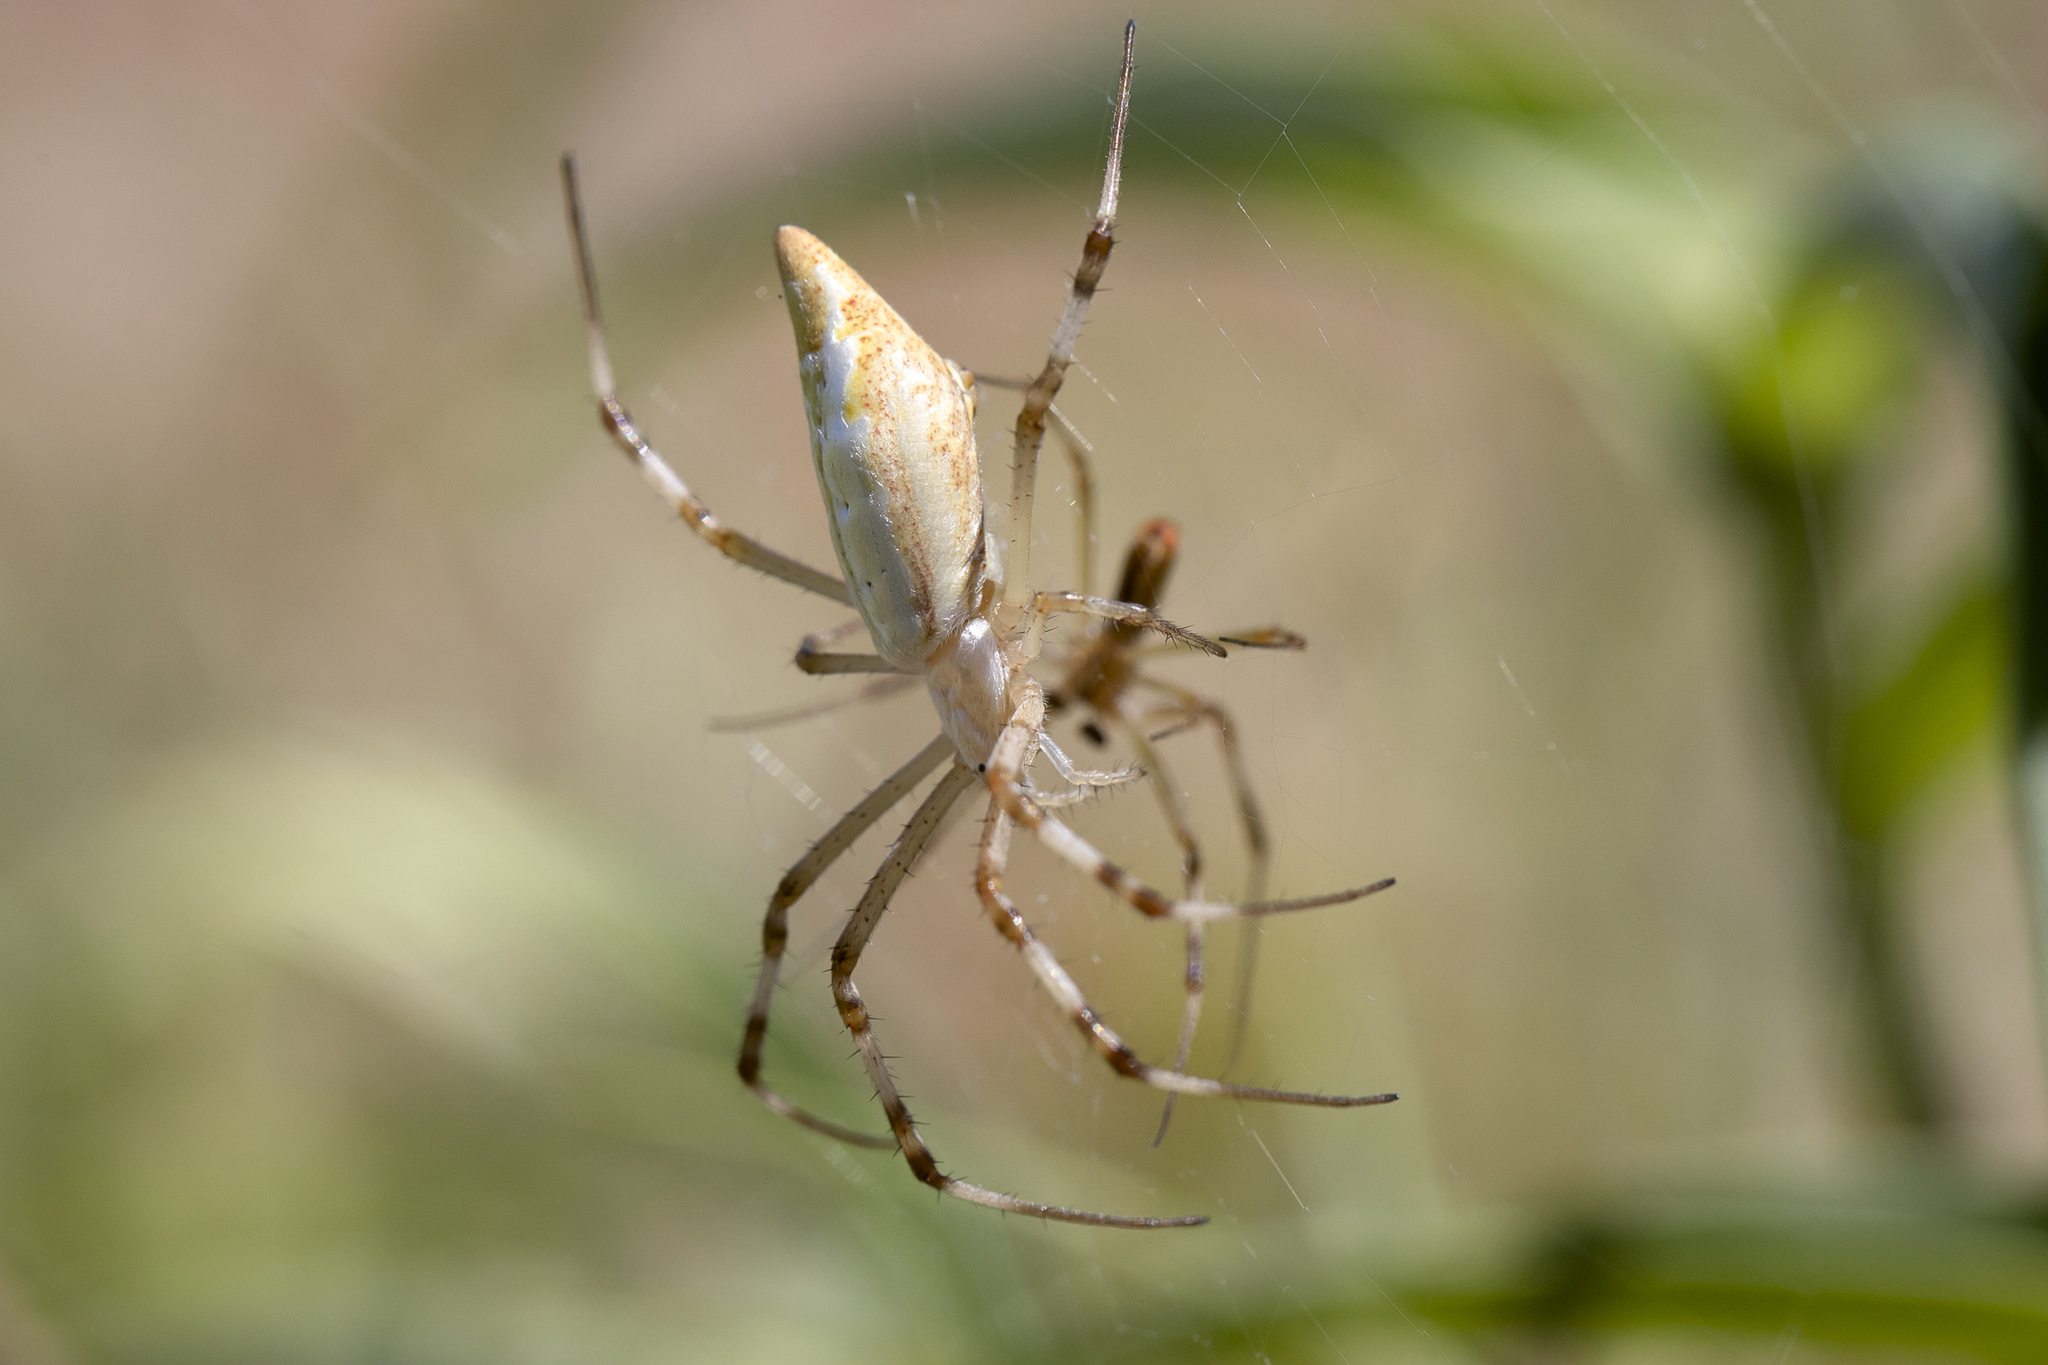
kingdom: Animalia
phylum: Arthropoda
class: Arachnida
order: Araneae
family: Araneidae
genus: Argiope
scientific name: Argiope protensa
